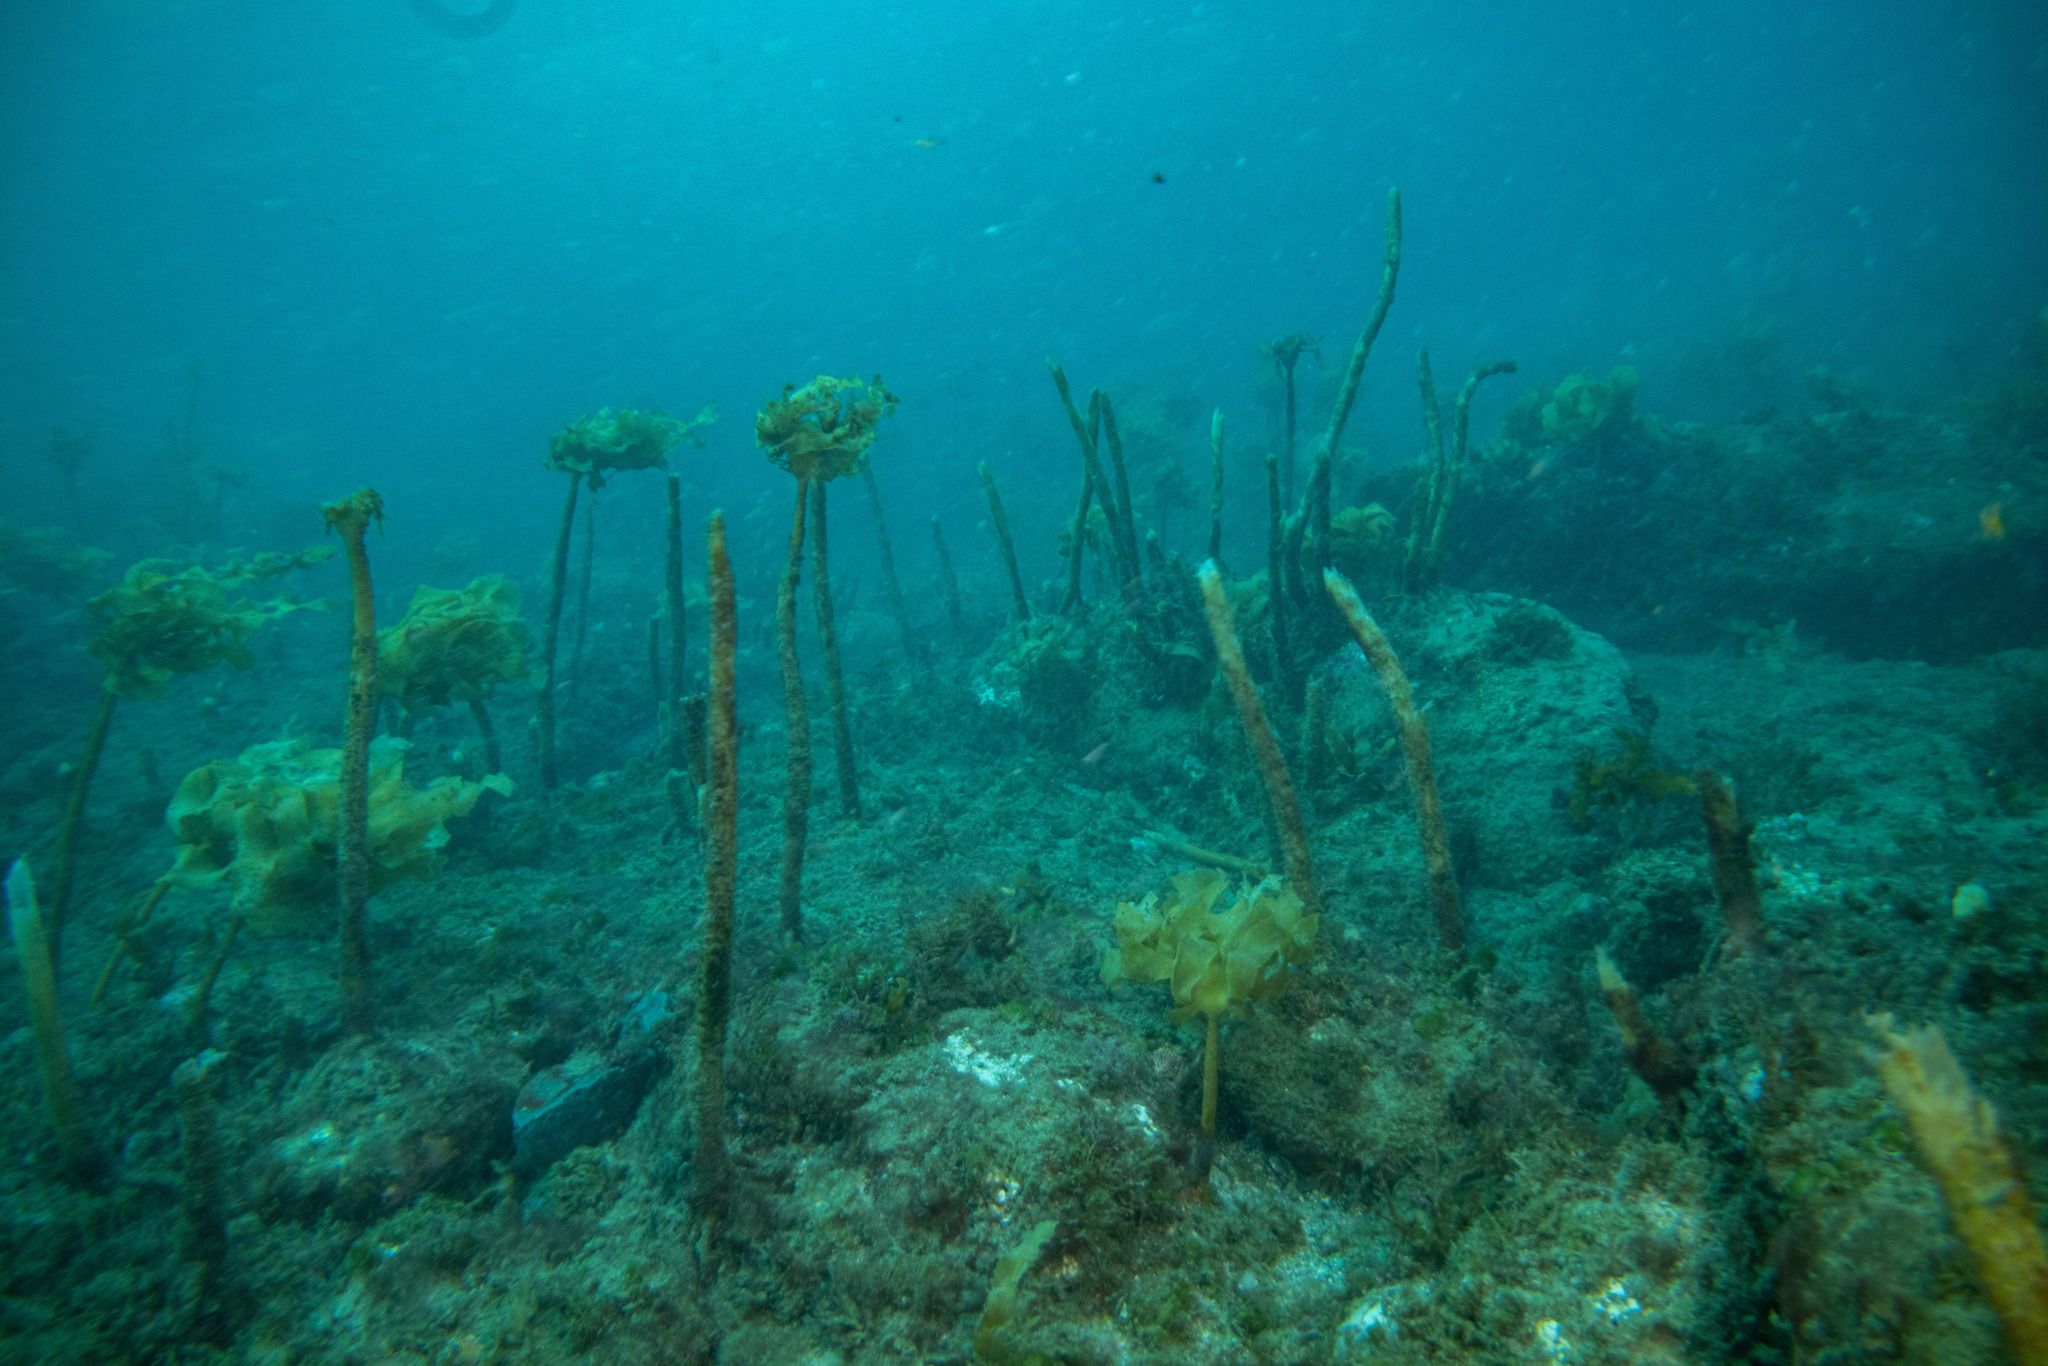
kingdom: Chromista
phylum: Ochrophyta
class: Phaeophyceae
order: Laminariales
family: Lessoniaceae
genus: Ecklonia
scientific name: Ecklonia radiata
